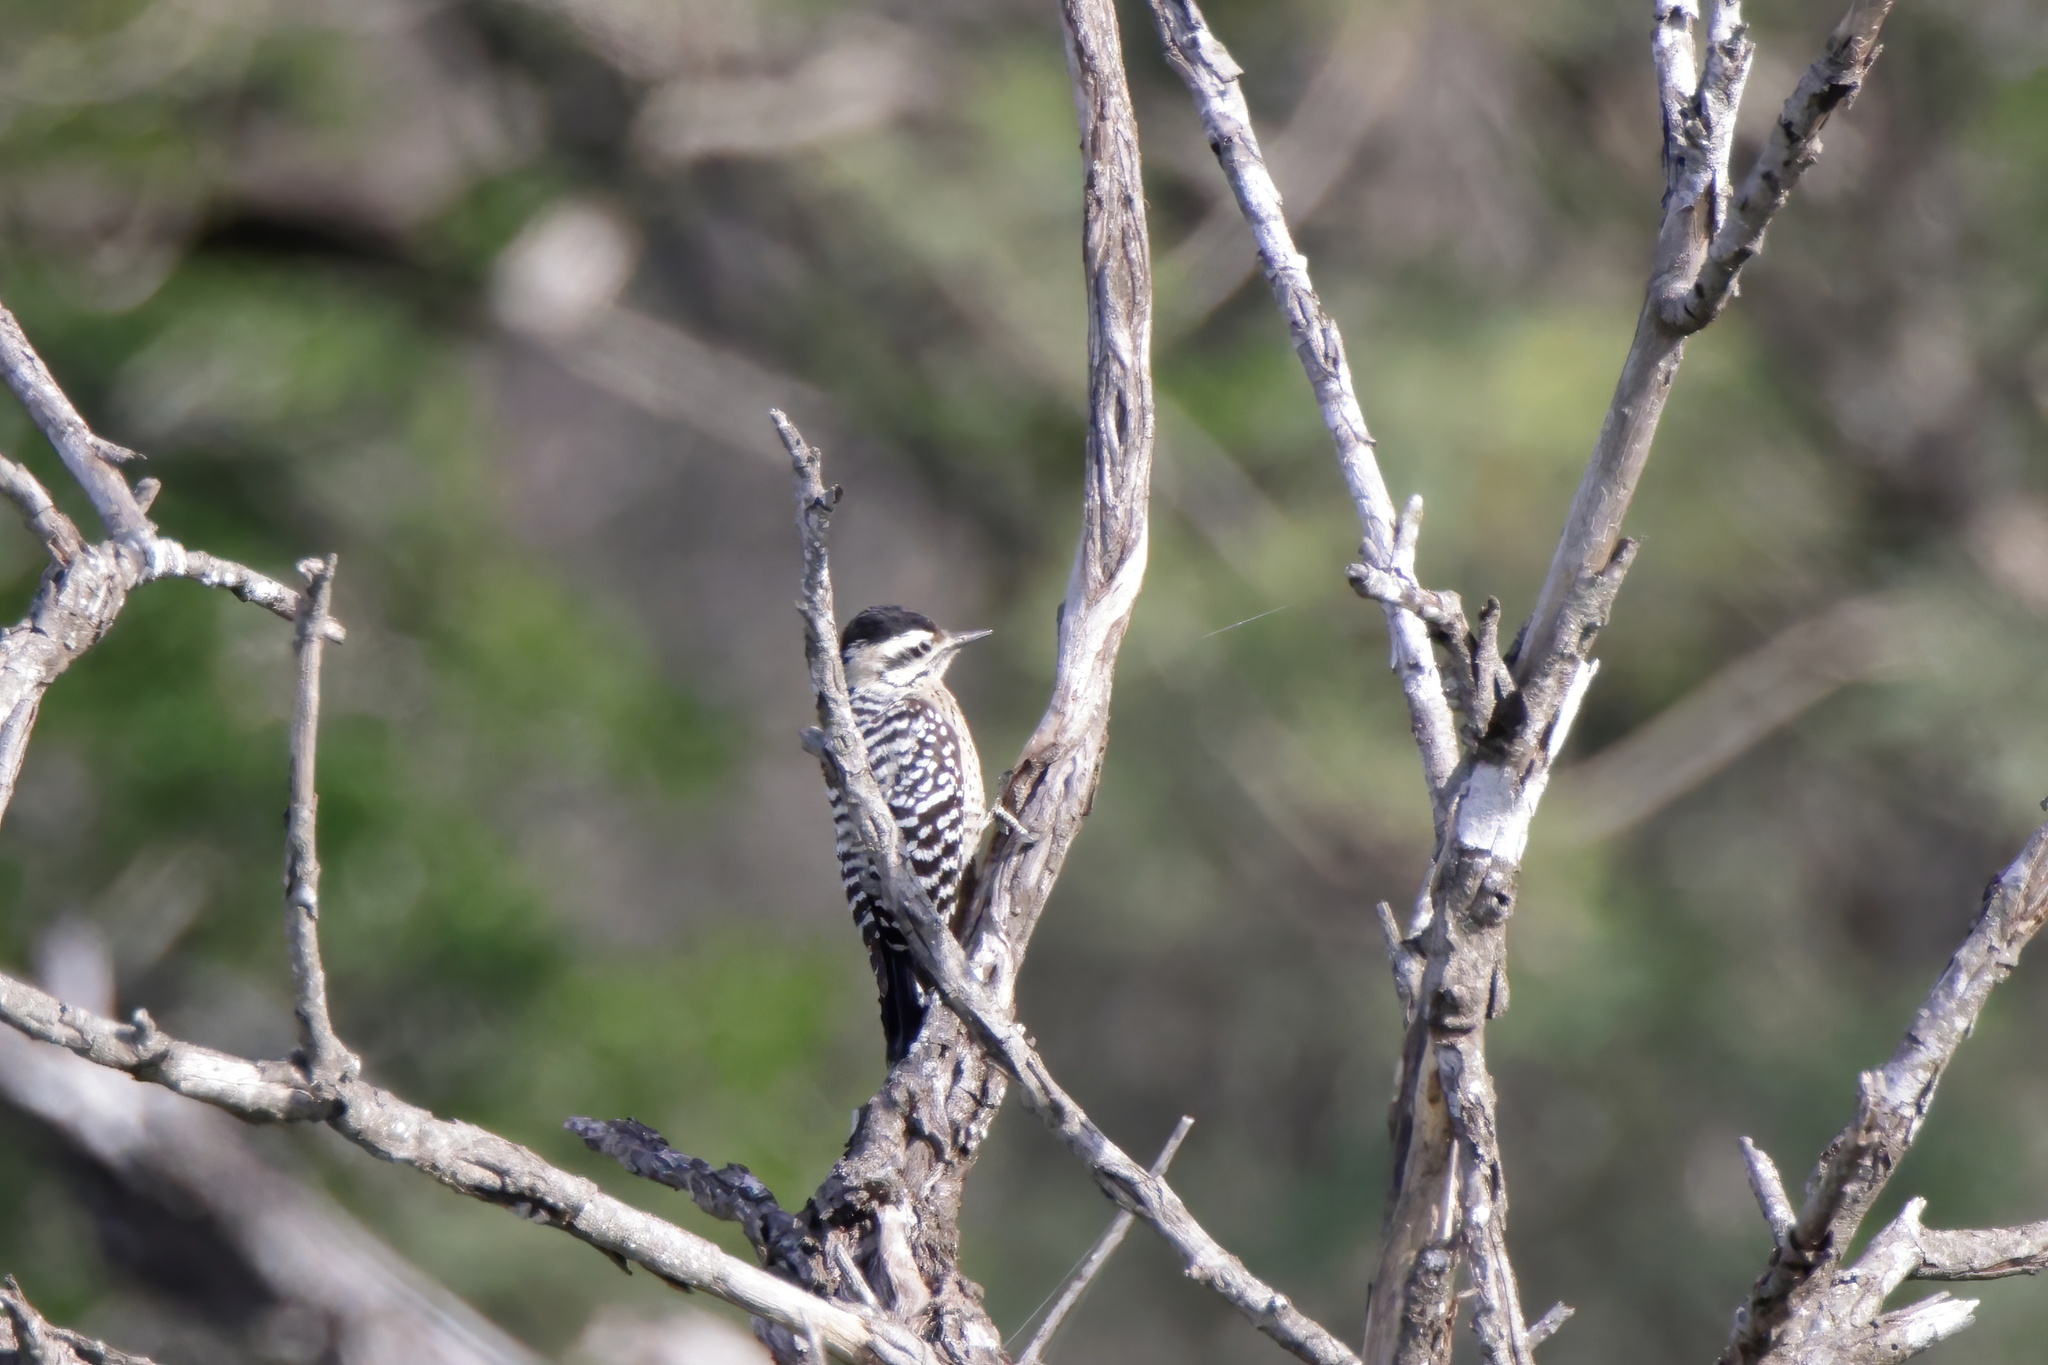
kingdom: Animalia
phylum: Chordata
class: Aves
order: Piciformes
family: Picidae
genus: Dryobates
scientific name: Dryobates scalaris
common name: Ladder-backed woodpecker
